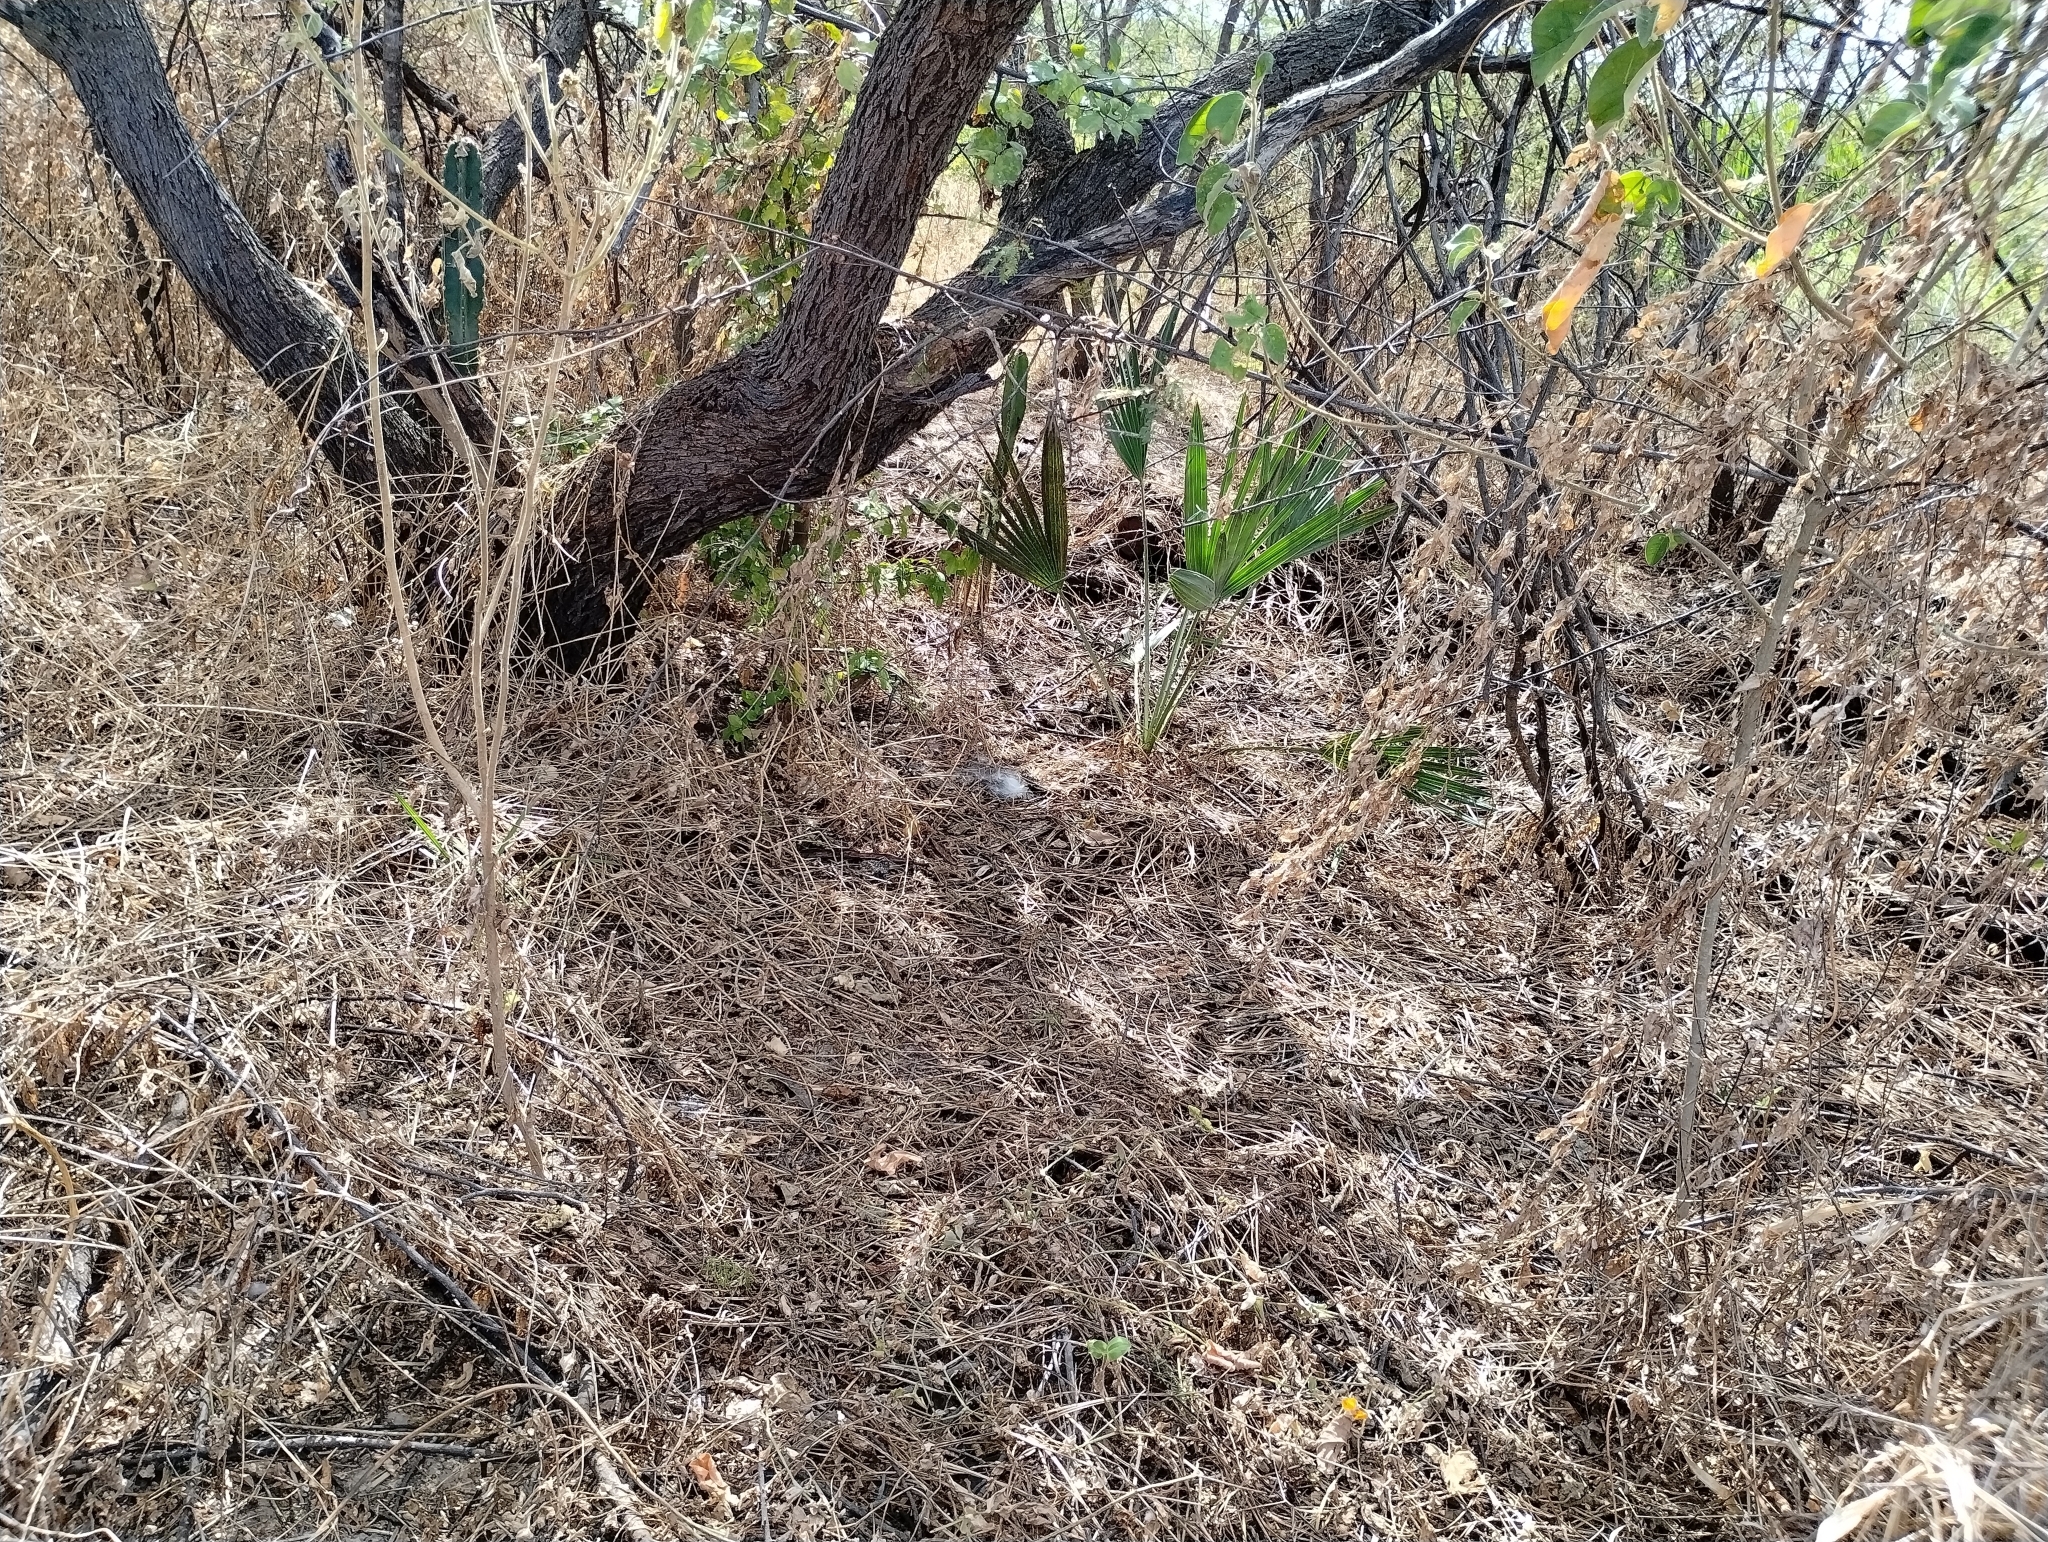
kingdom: Plantae
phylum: Tracheophyta
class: Liliopsida
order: Arecales
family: Arecaceae
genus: Copernicia
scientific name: Copernicia prunifera
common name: Carnauba palm
